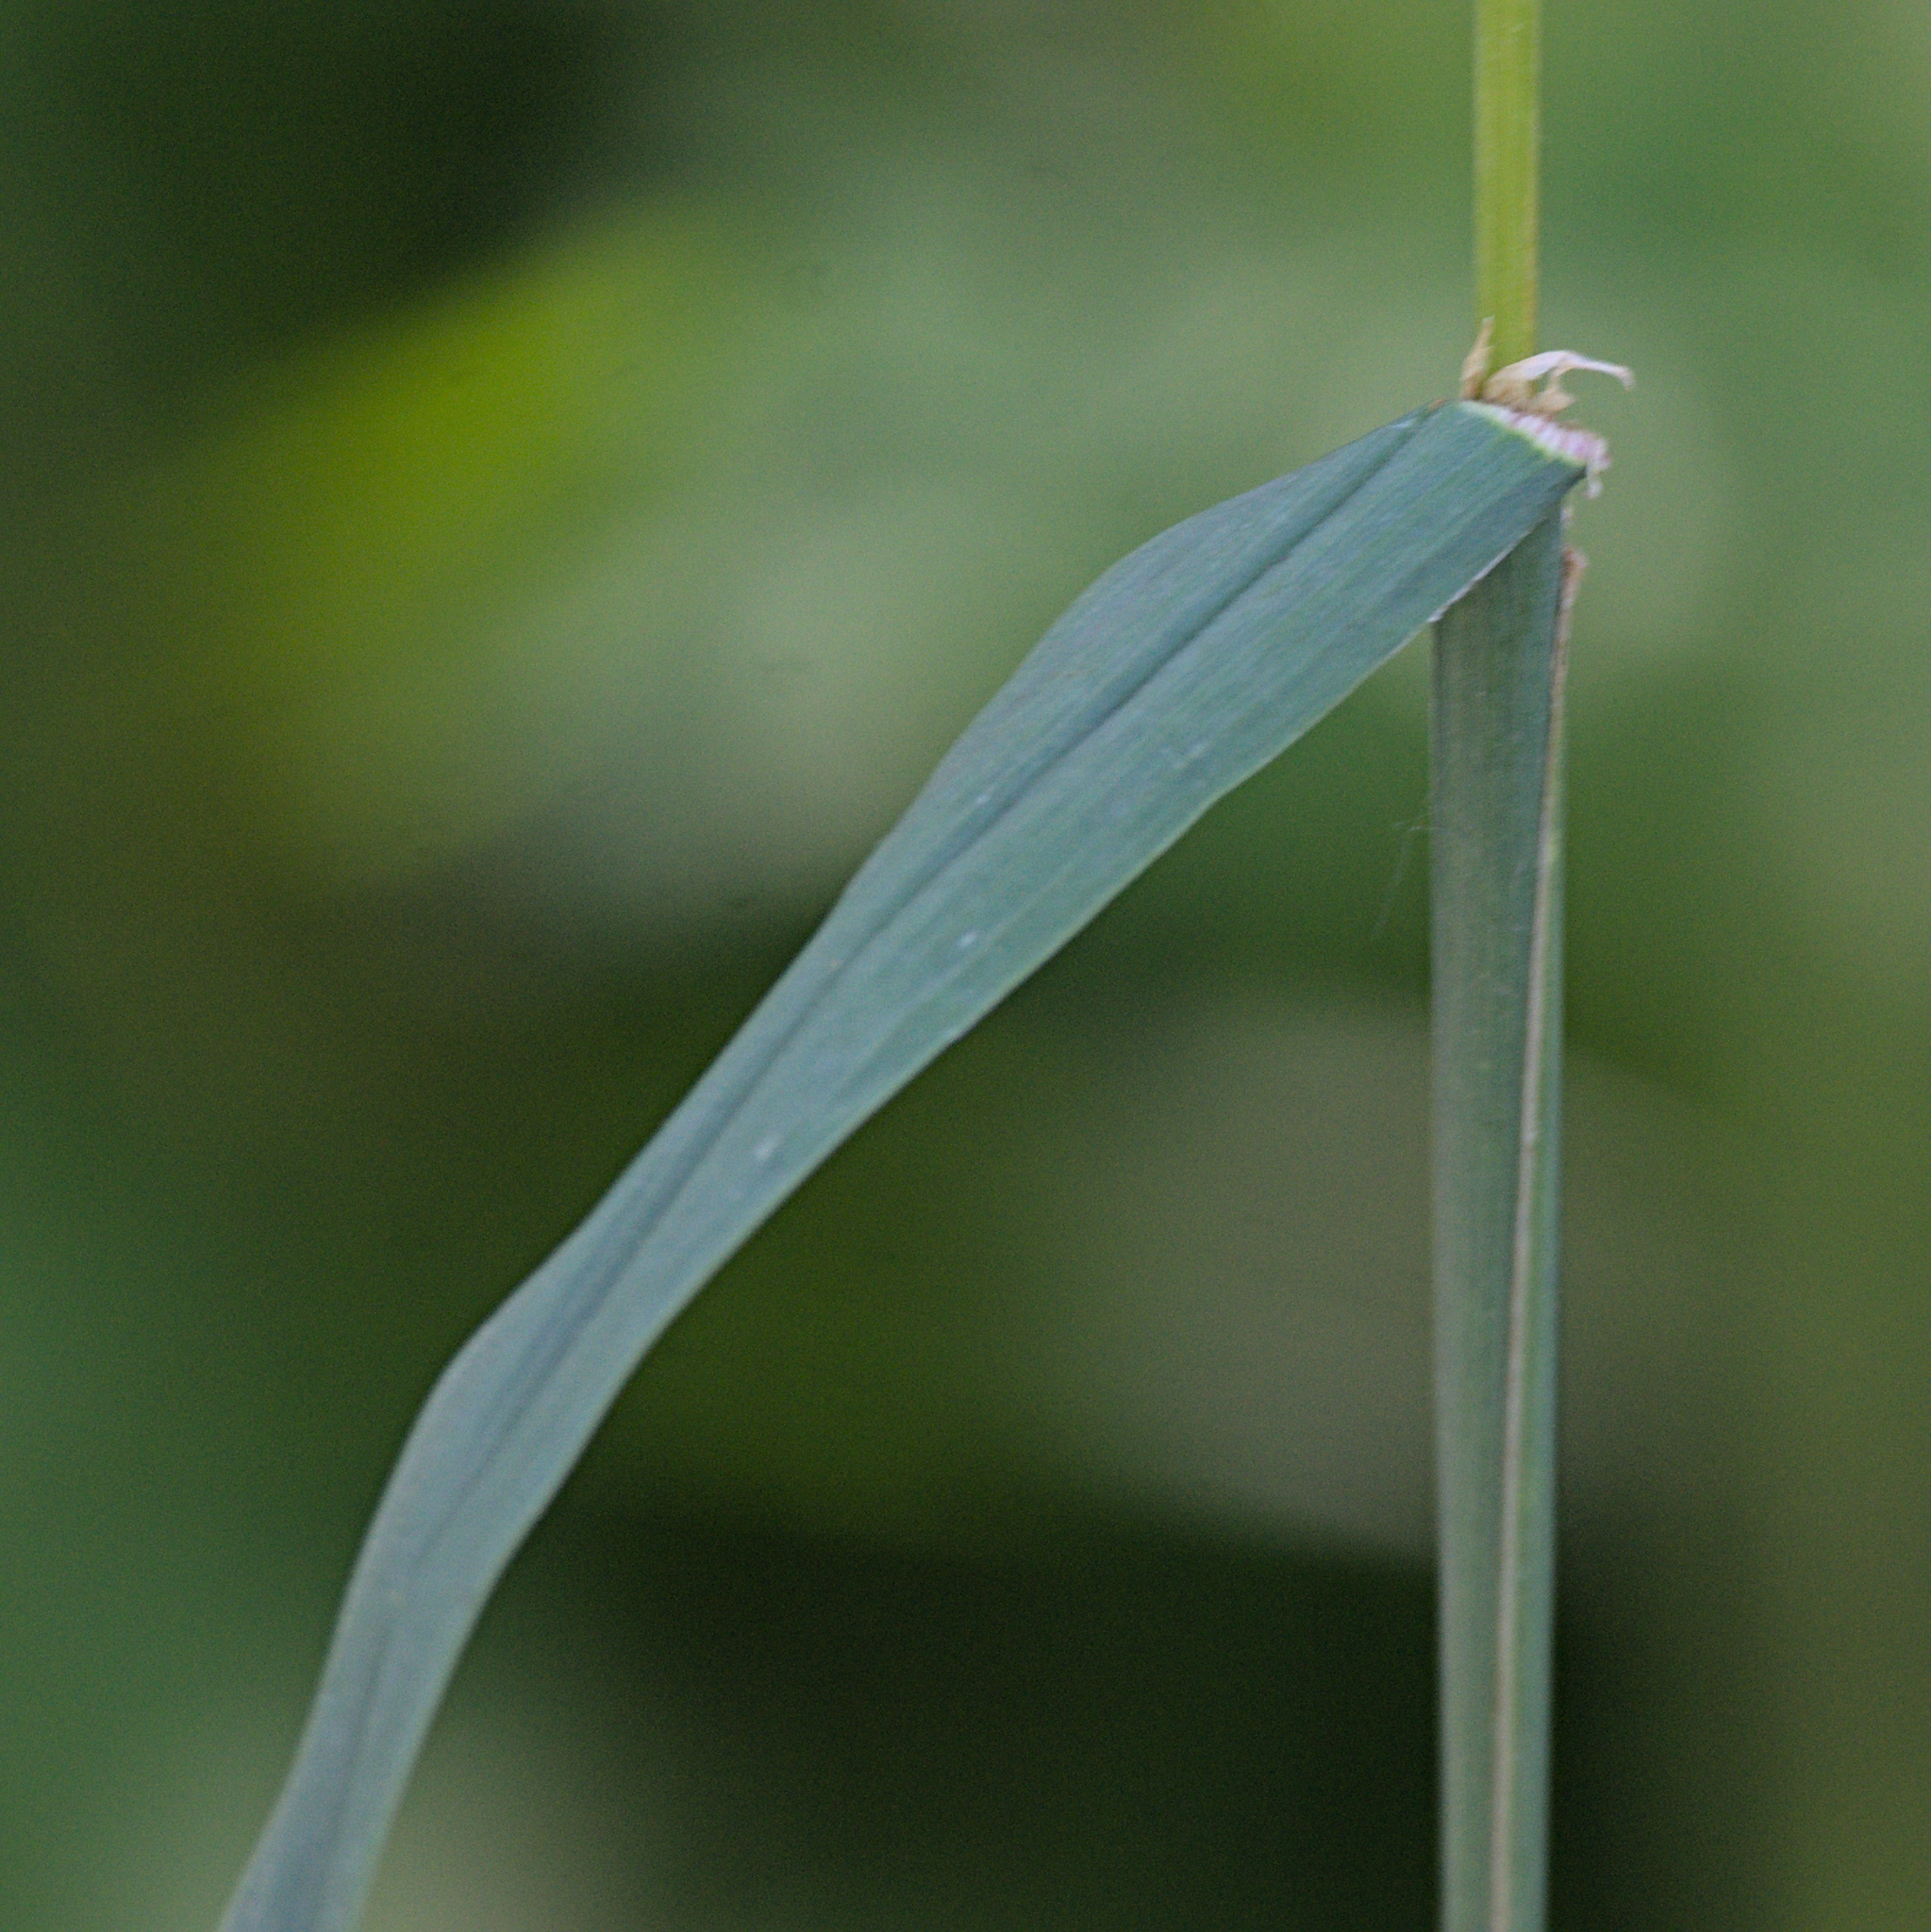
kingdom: Plantae
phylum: Tracheophyta
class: Liliopsida
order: Poales
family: Poaceae
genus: Dactylis
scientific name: Dactylis glomerata
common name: Orchardgrass
